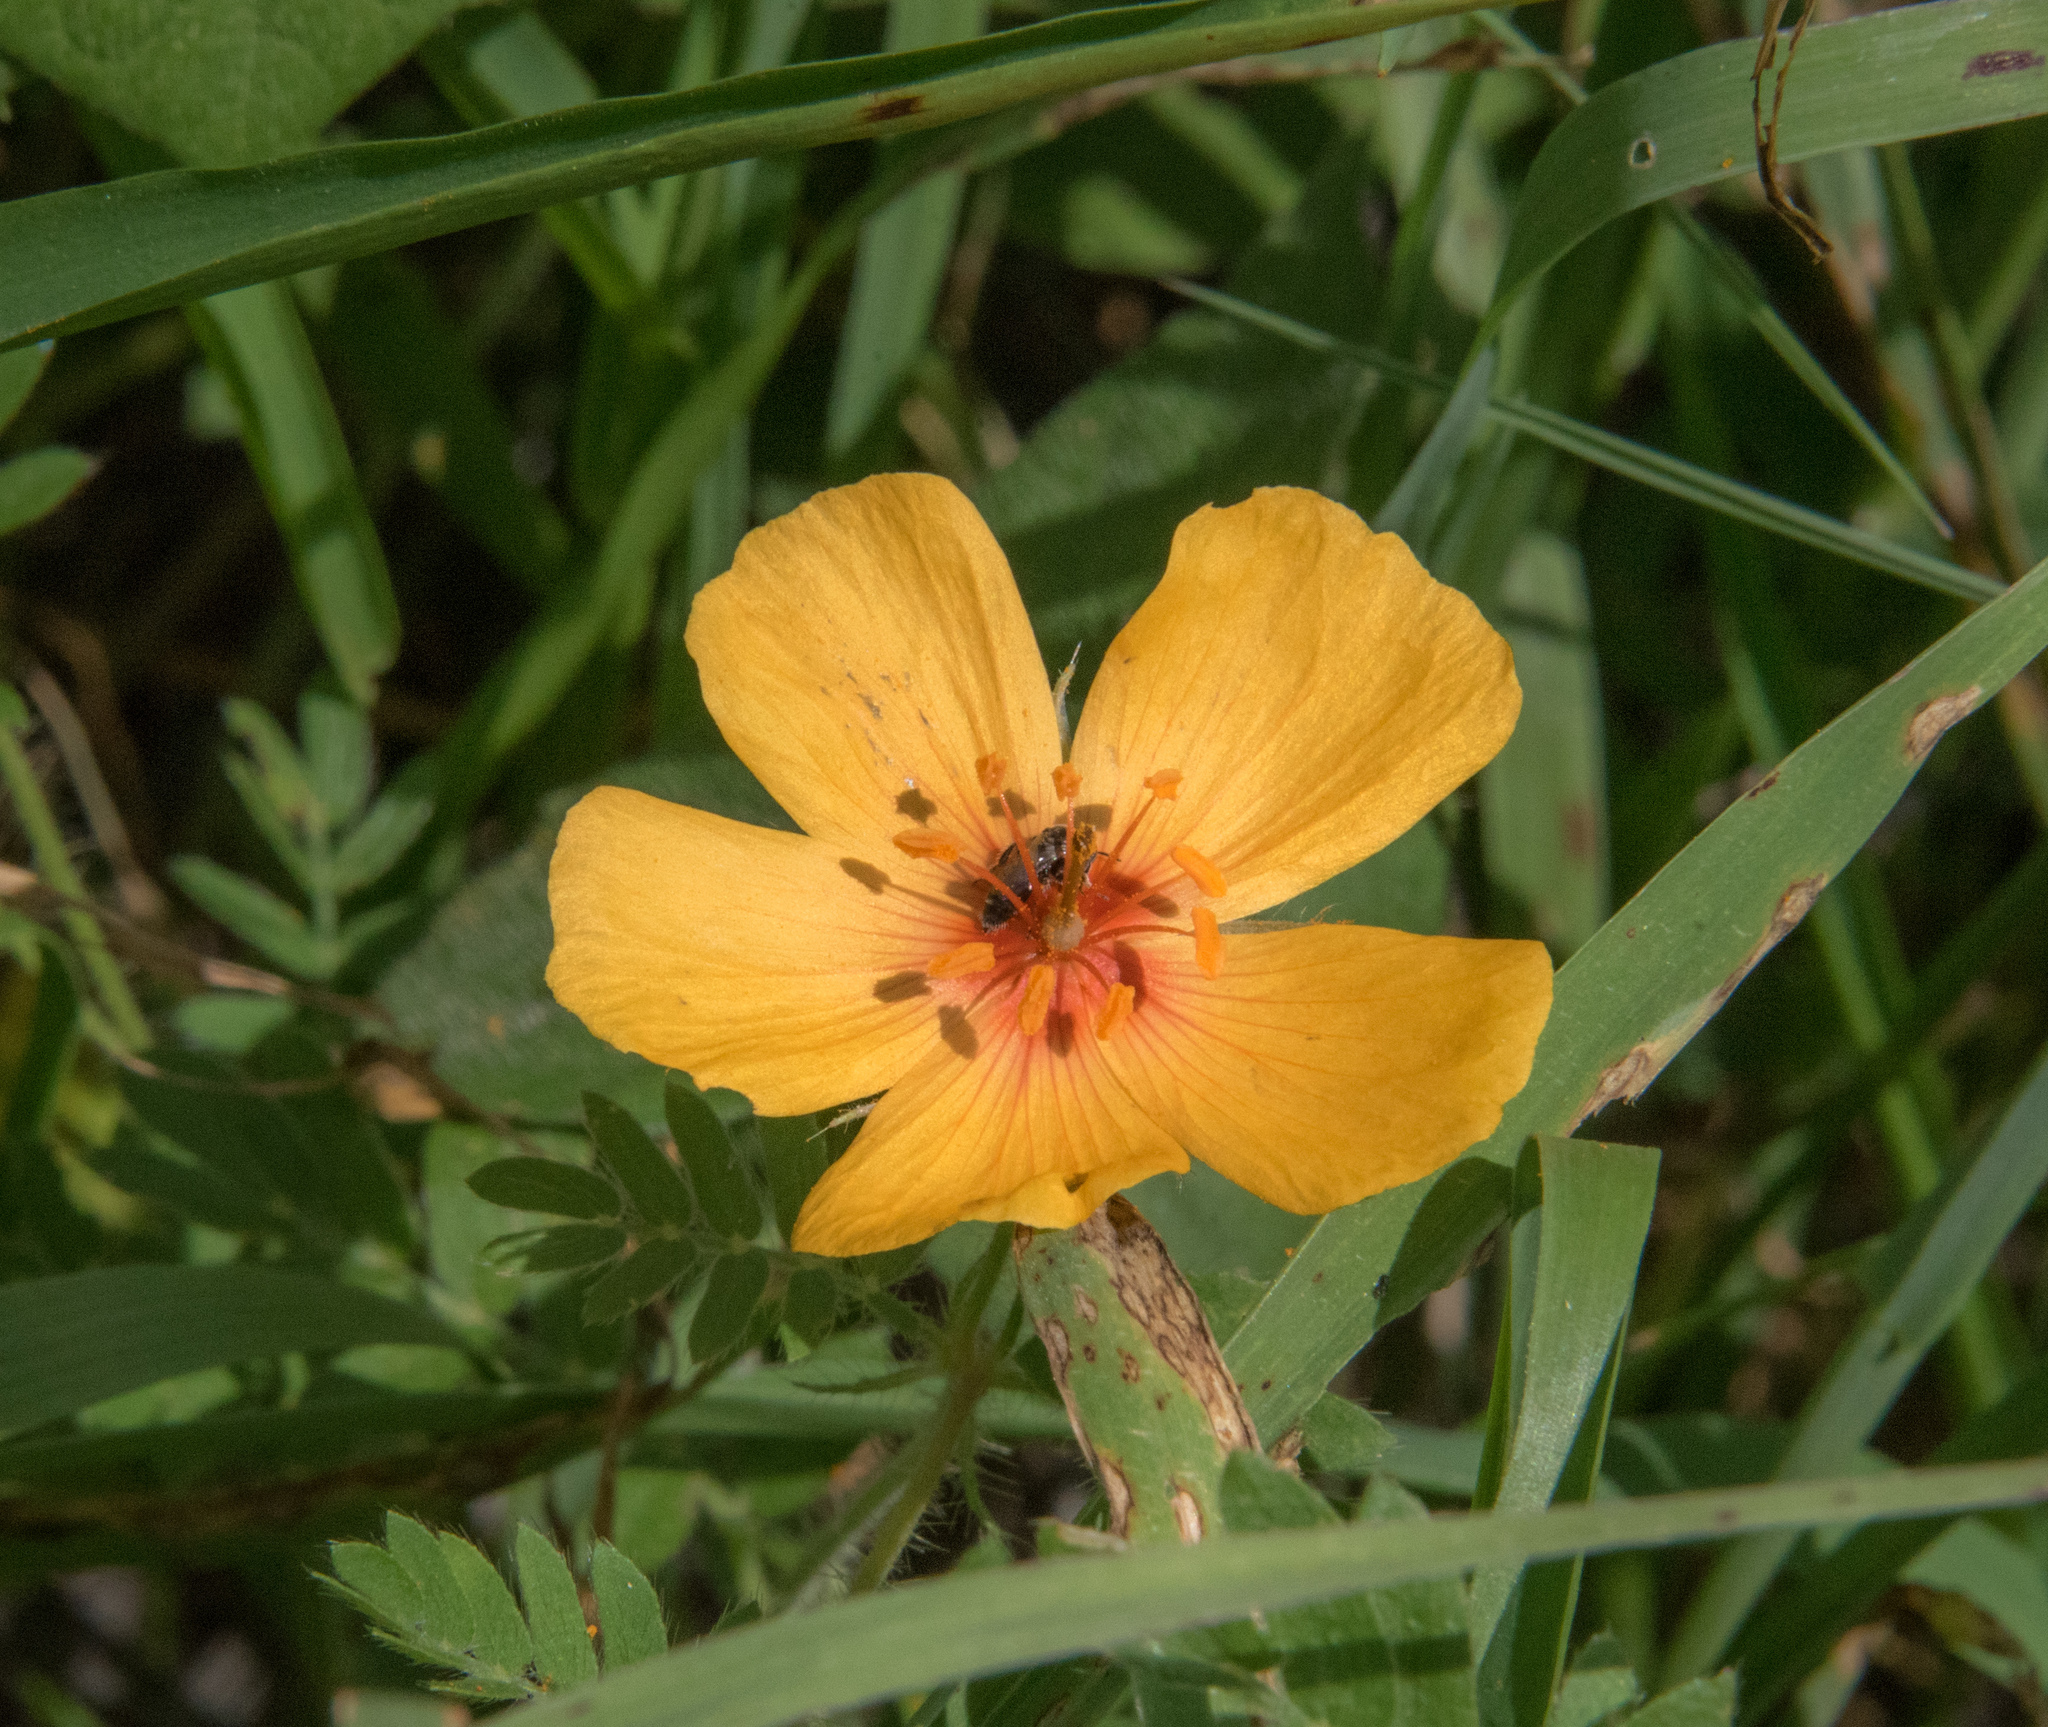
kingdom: Plantae
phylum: Tracheophyta
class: Magnoliopsida
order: Zygophyllales
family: Zygophyllaceae
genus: Kallstroemia
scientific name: Kallstroemia grandiflora
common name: Arizona-poppy
